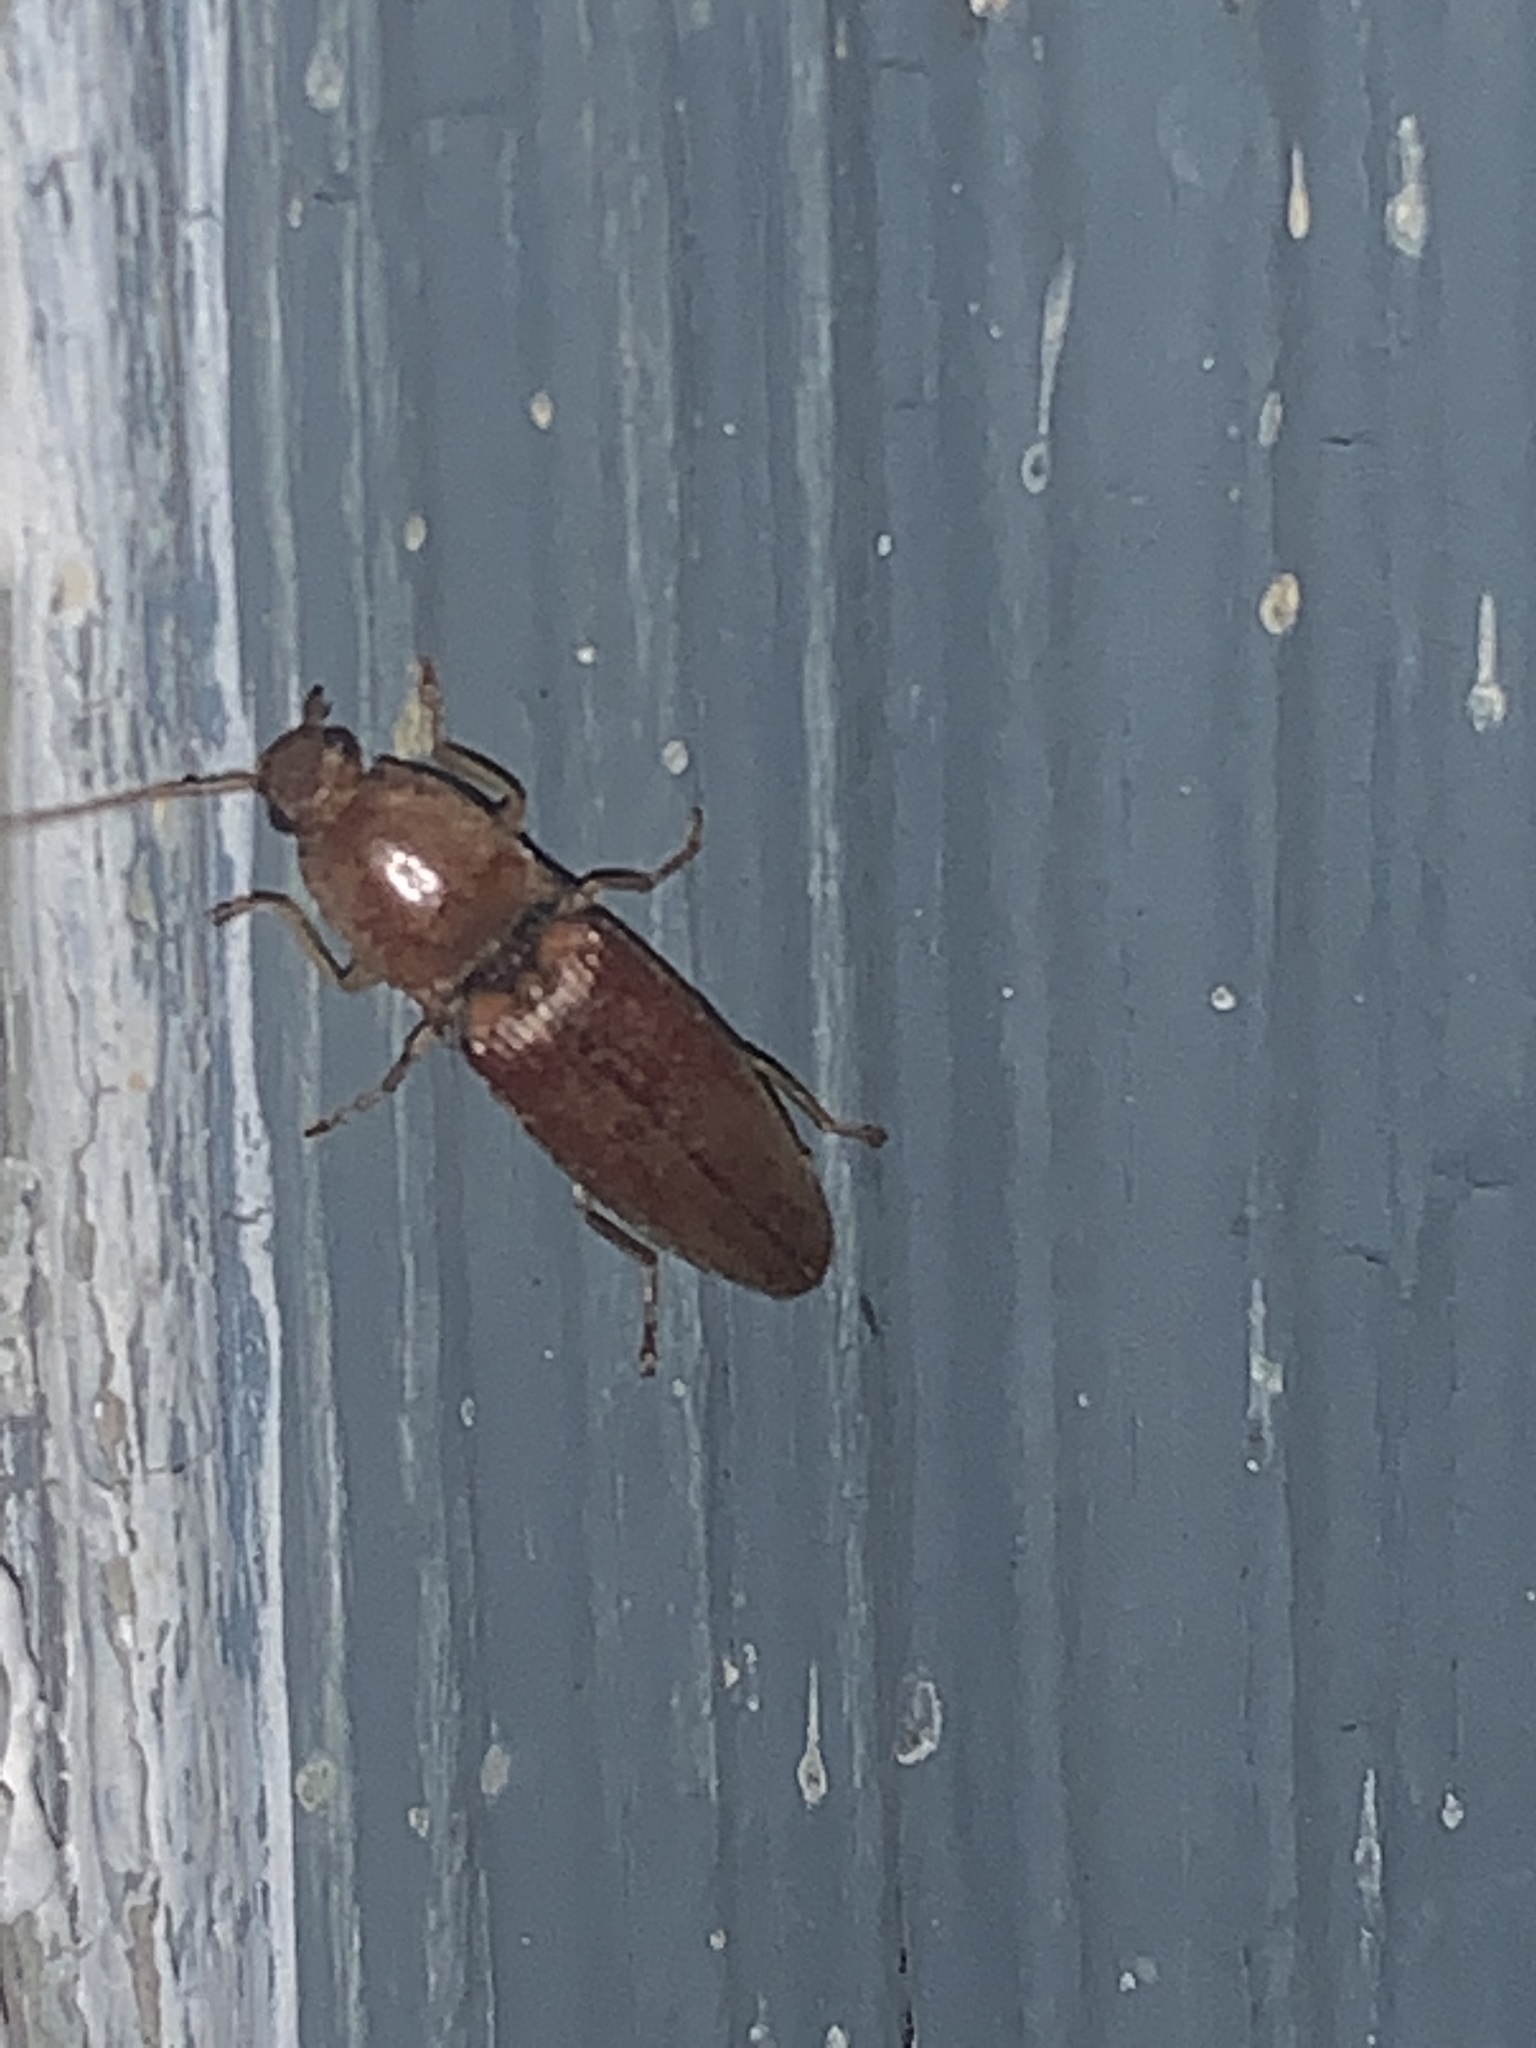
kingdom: Animalia
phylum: Arthropoda
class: Insecta
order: Coleoptera
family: Elateridae
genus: Monocrepidius
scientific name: Monocrepidius lividus
